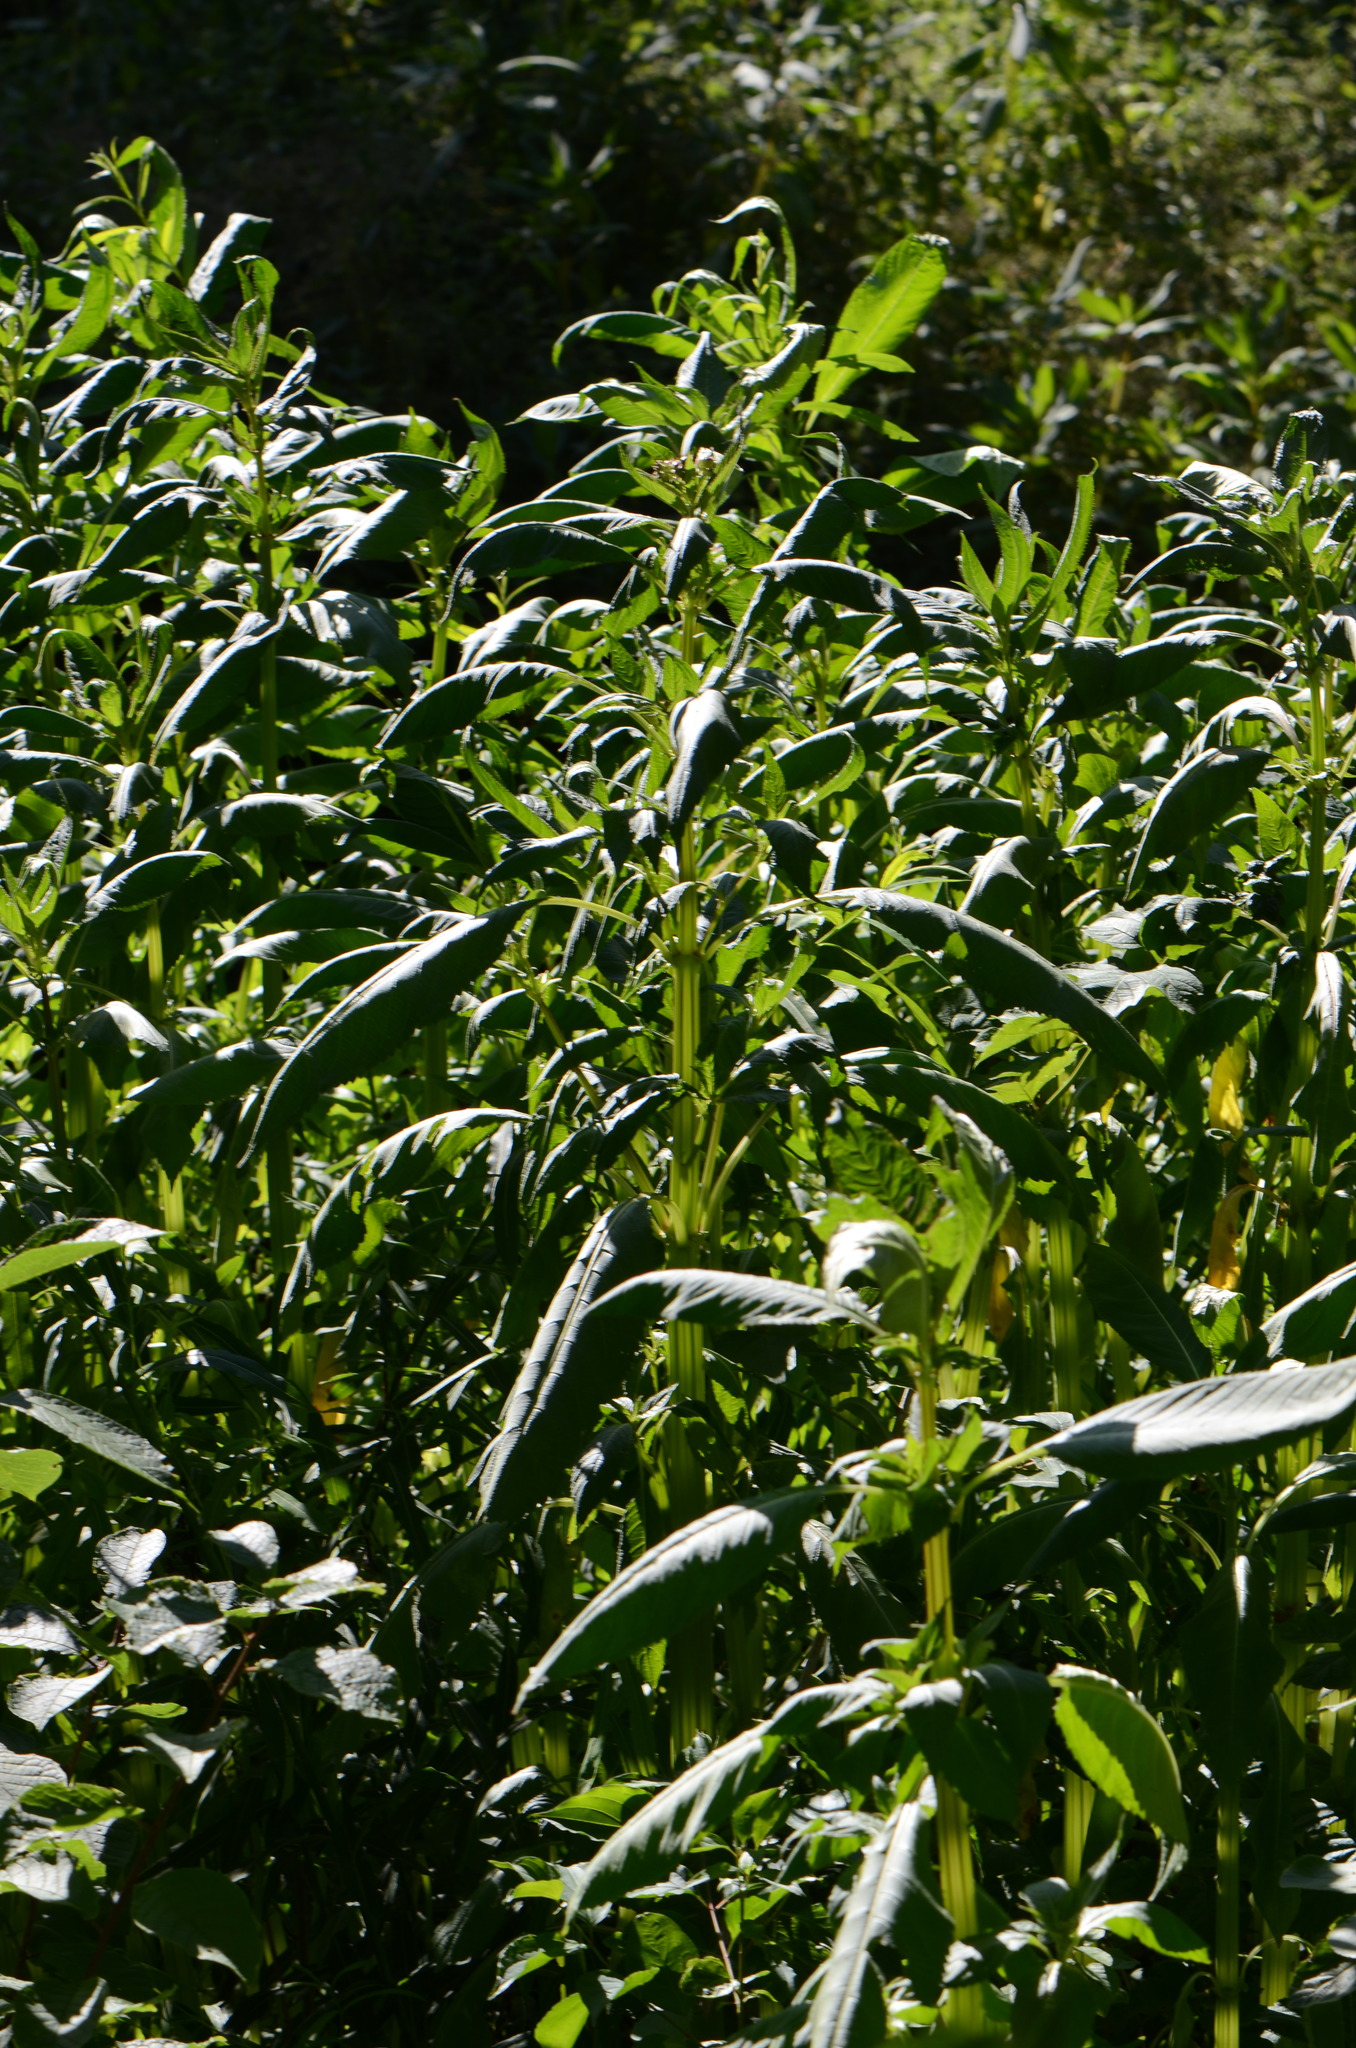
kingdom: Plantae
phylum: Tracheophyta
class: Magnoliopsida
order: Ericales
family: Balsaminaceae
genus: Impatiens
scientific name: Impatiens glandulifera
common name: Himalayan balsam
